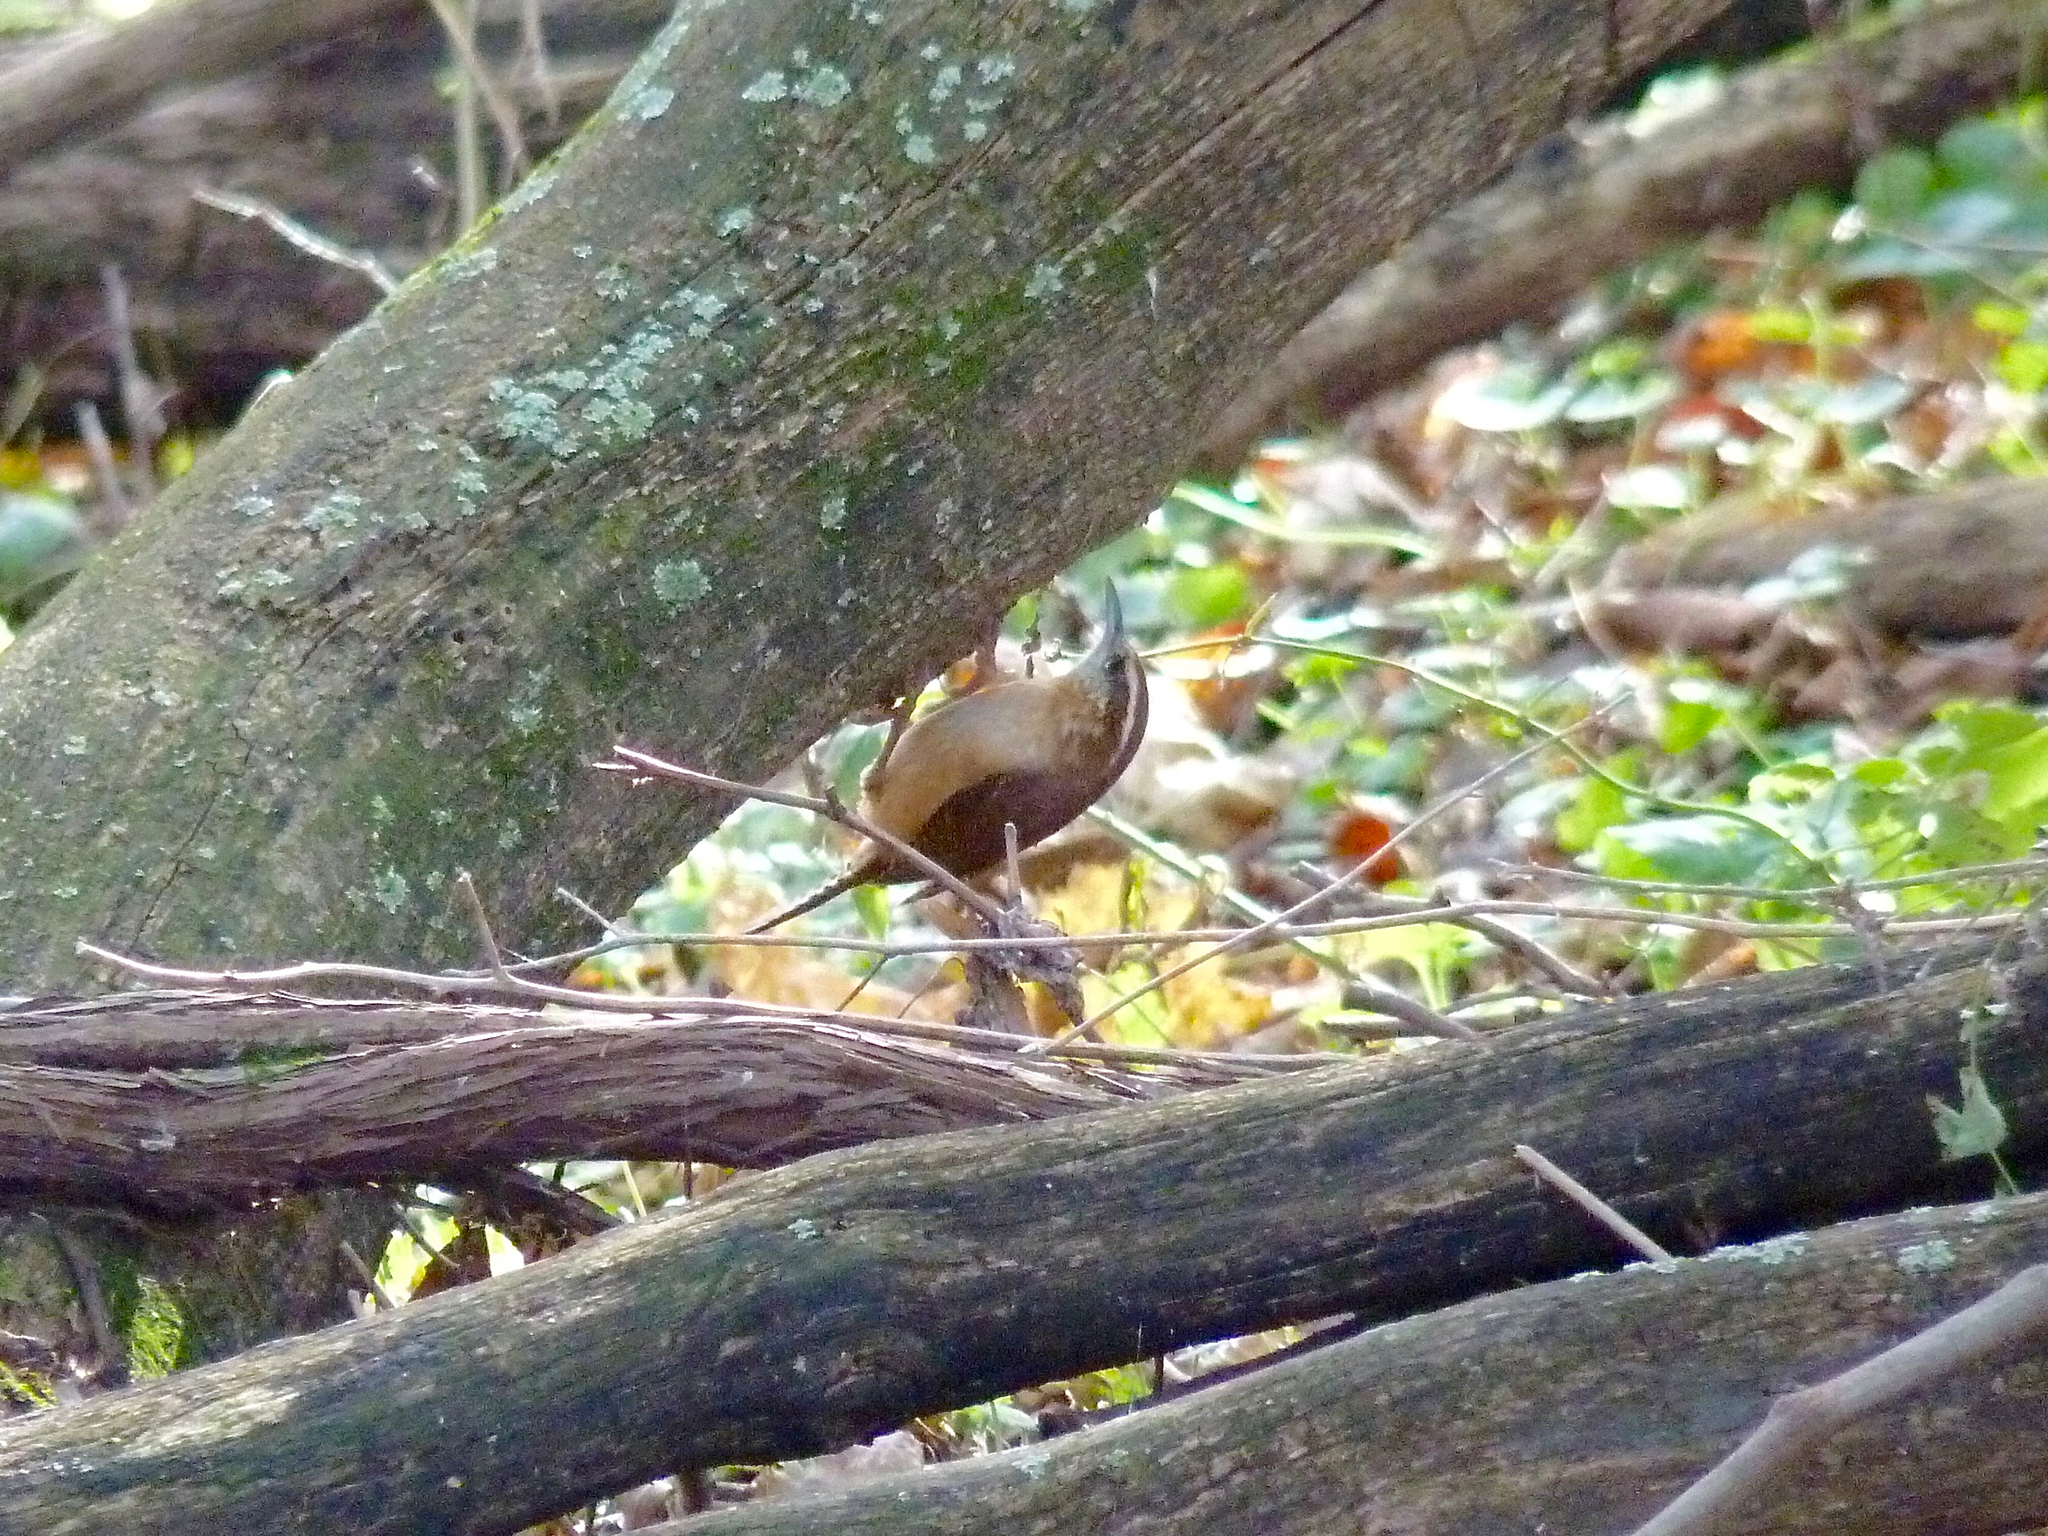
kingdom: Animalia
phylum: Chordata
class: Aves
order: Passeriformes
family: Troglodytidae
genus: Thryothorus
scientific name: Thryothorus ludovicianus
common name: Carolina wren
